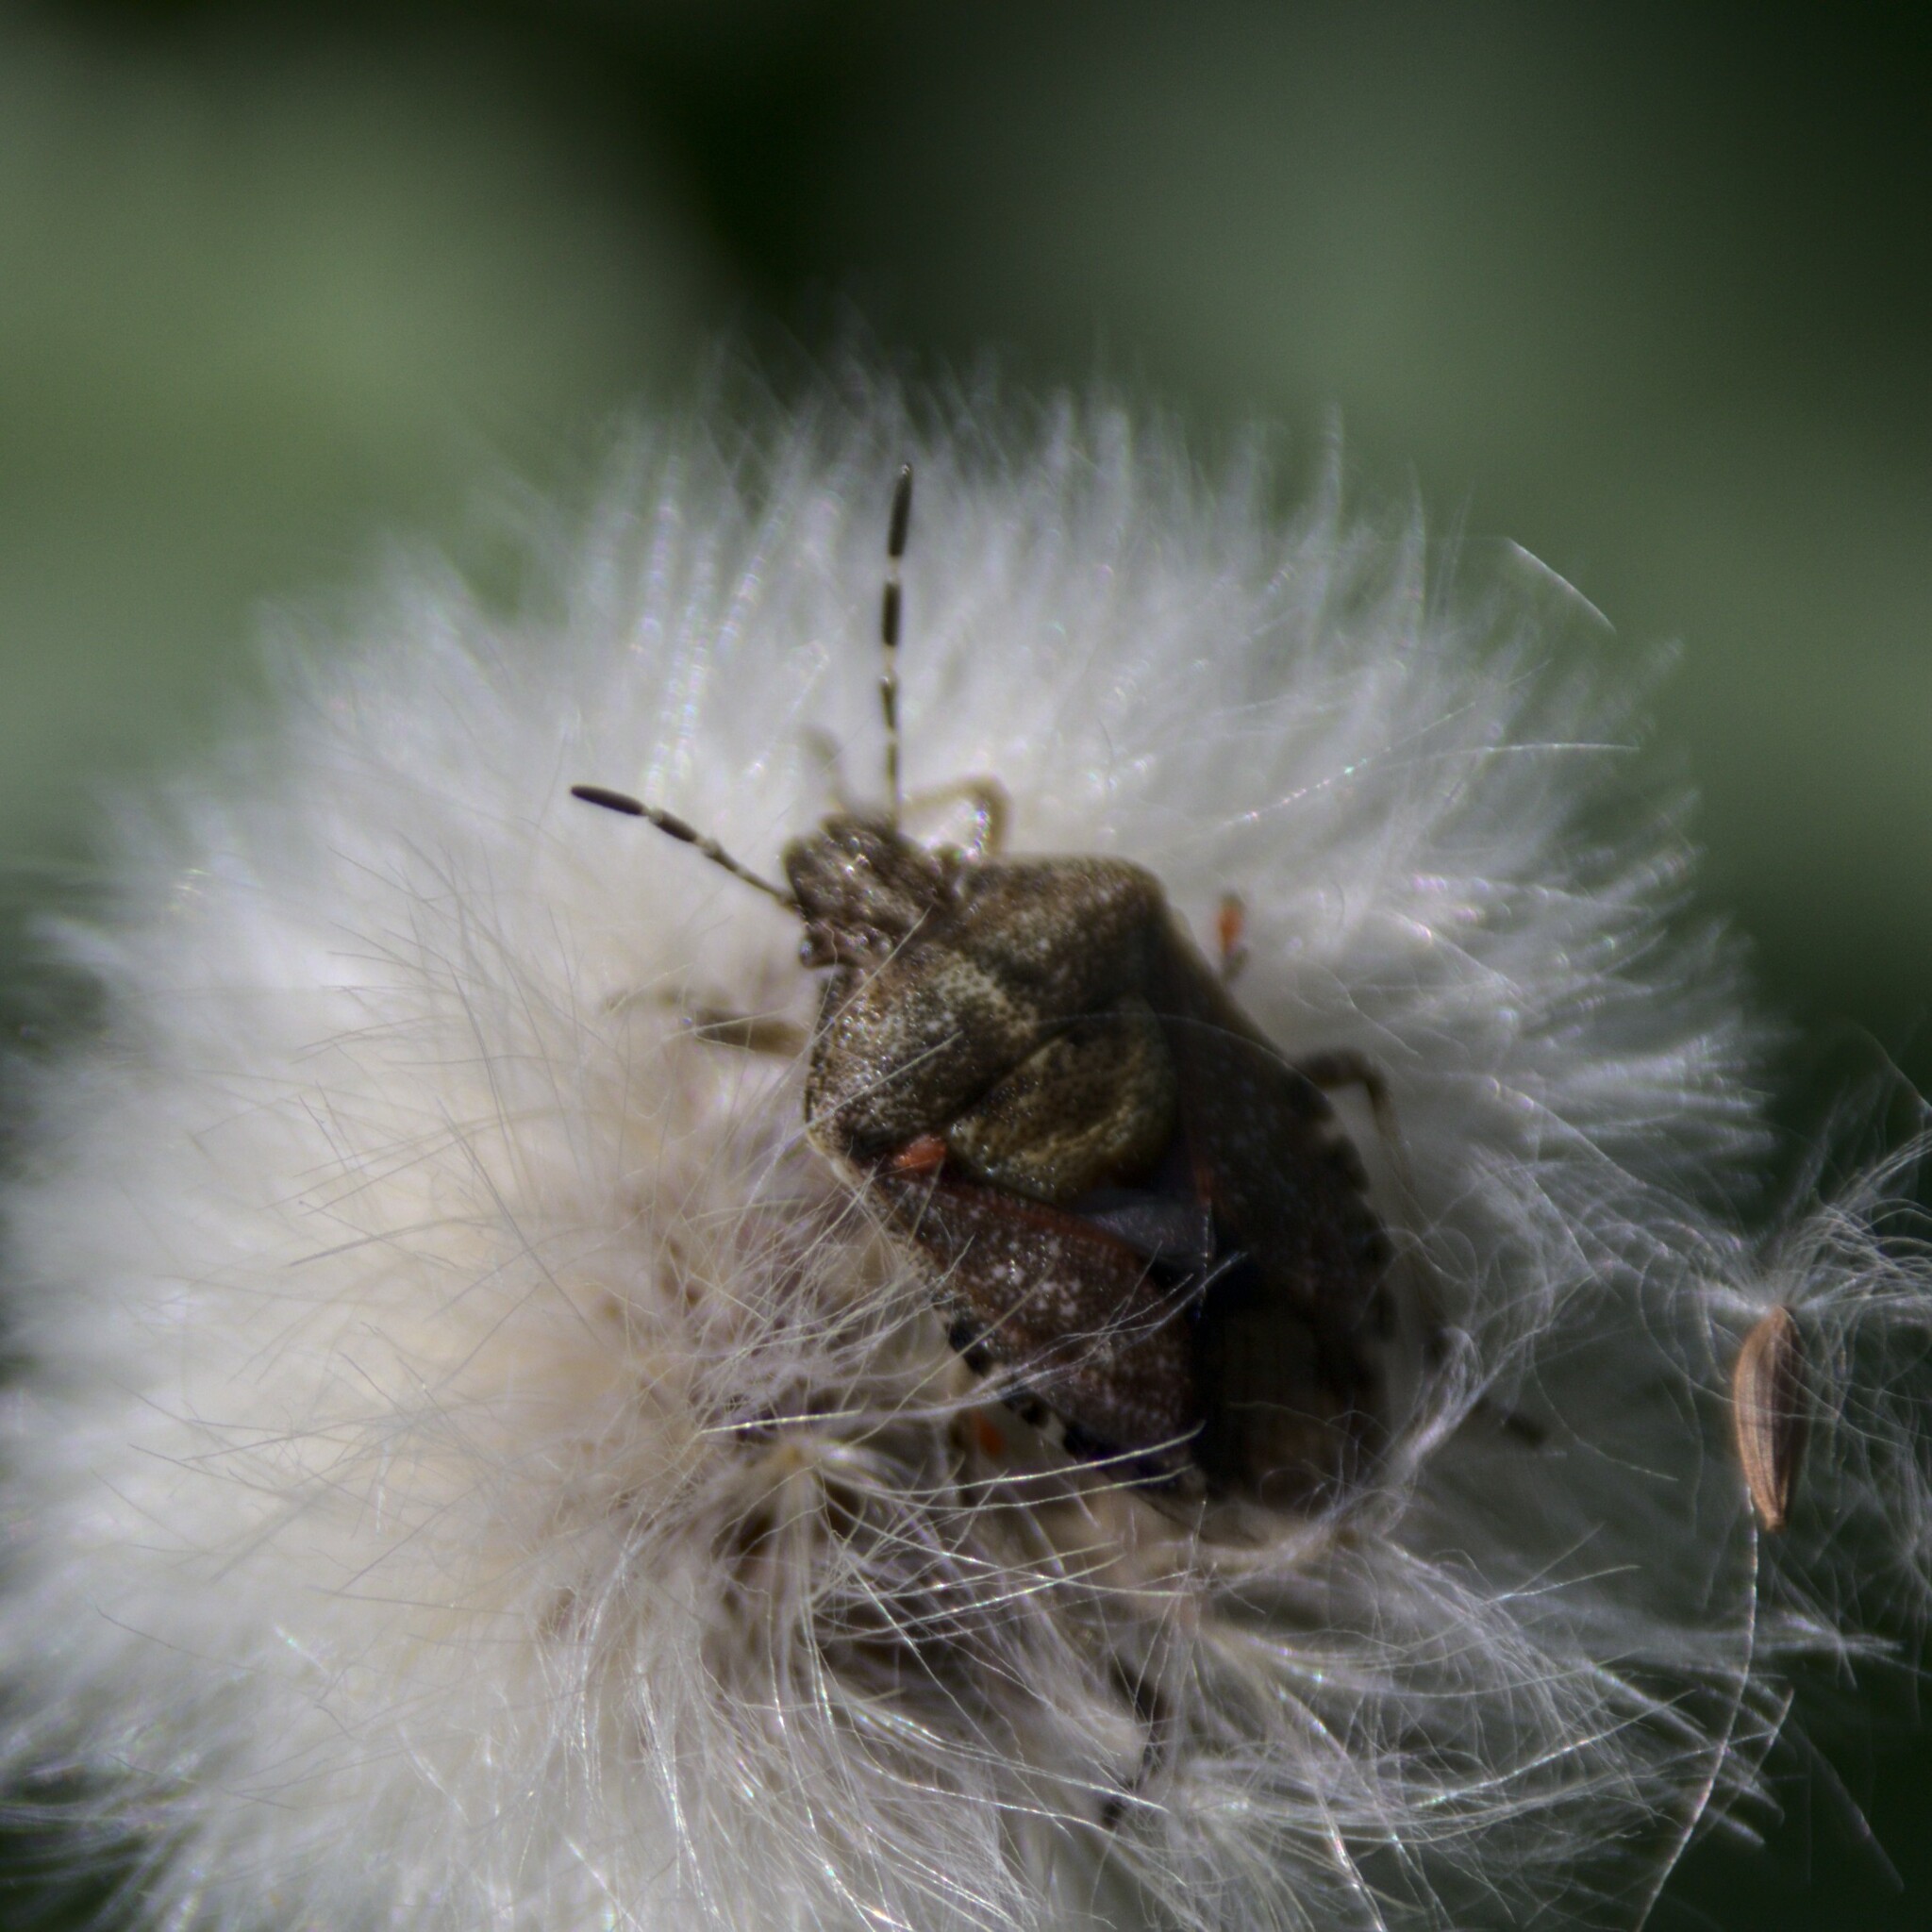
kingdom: Animalia
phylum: Arthropoda
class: Insecta
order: Hemiptera
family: Pentatomidae
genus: Dolycoris
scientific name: Dolycoris baccarum
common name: Sloe bug
